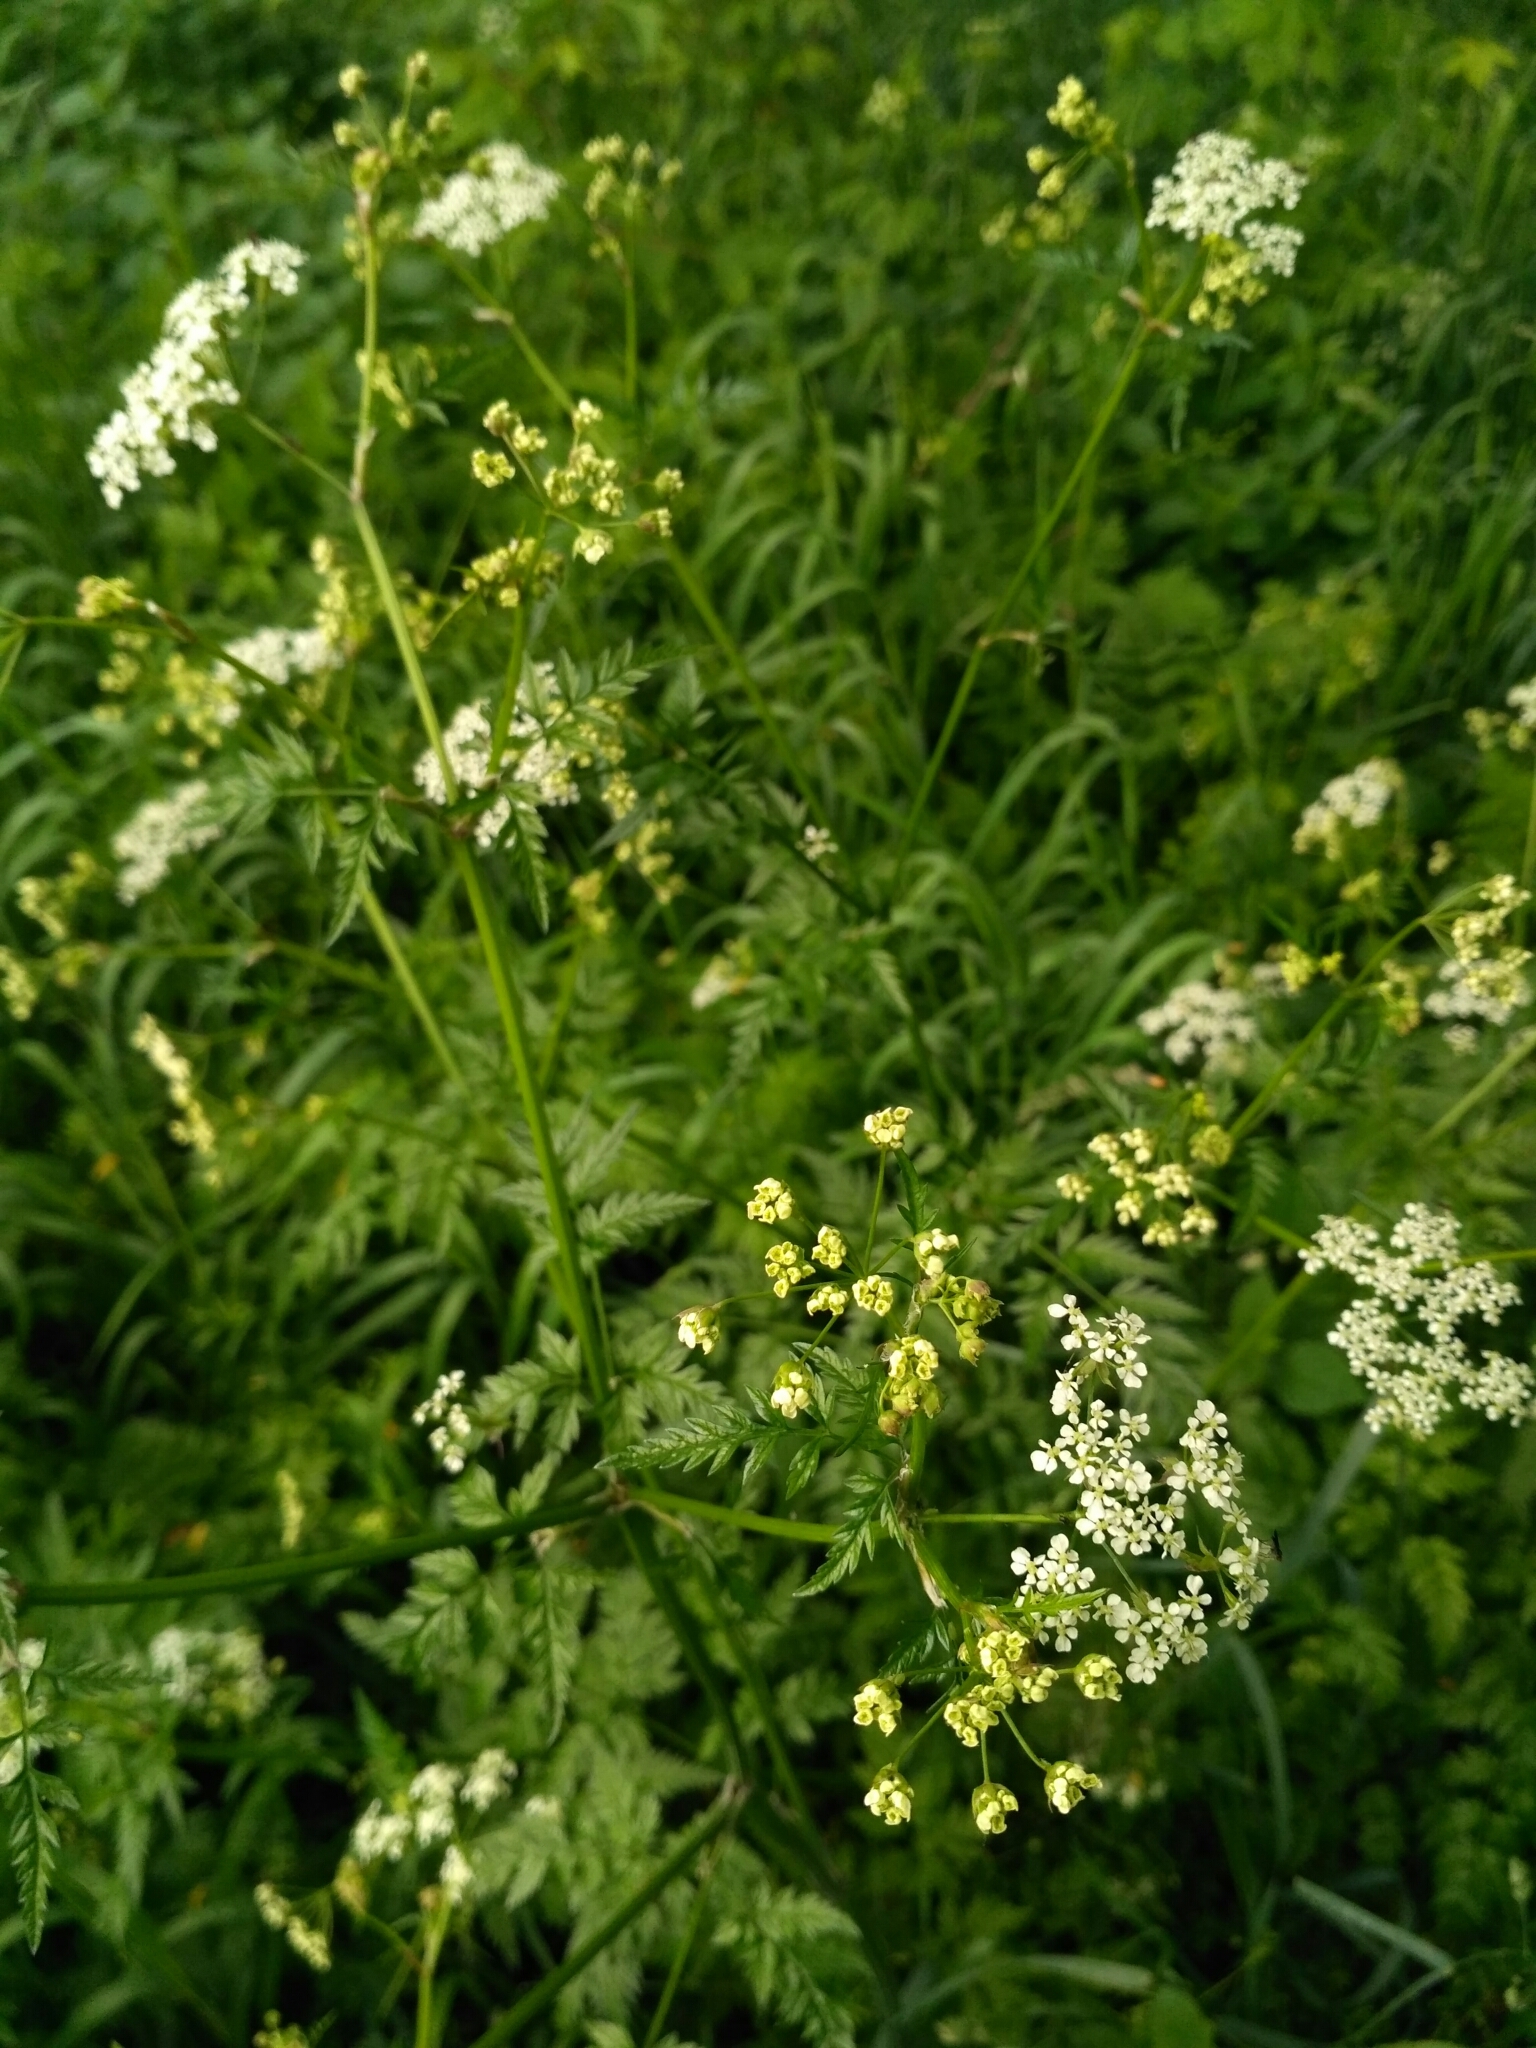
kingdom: Plantae
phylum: Tracheophyta
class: Magnoliopsida
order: Apiales
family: Apiaceae
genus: Anthriscus
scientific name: Anthriscus sylvestris
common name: Cow parsley
